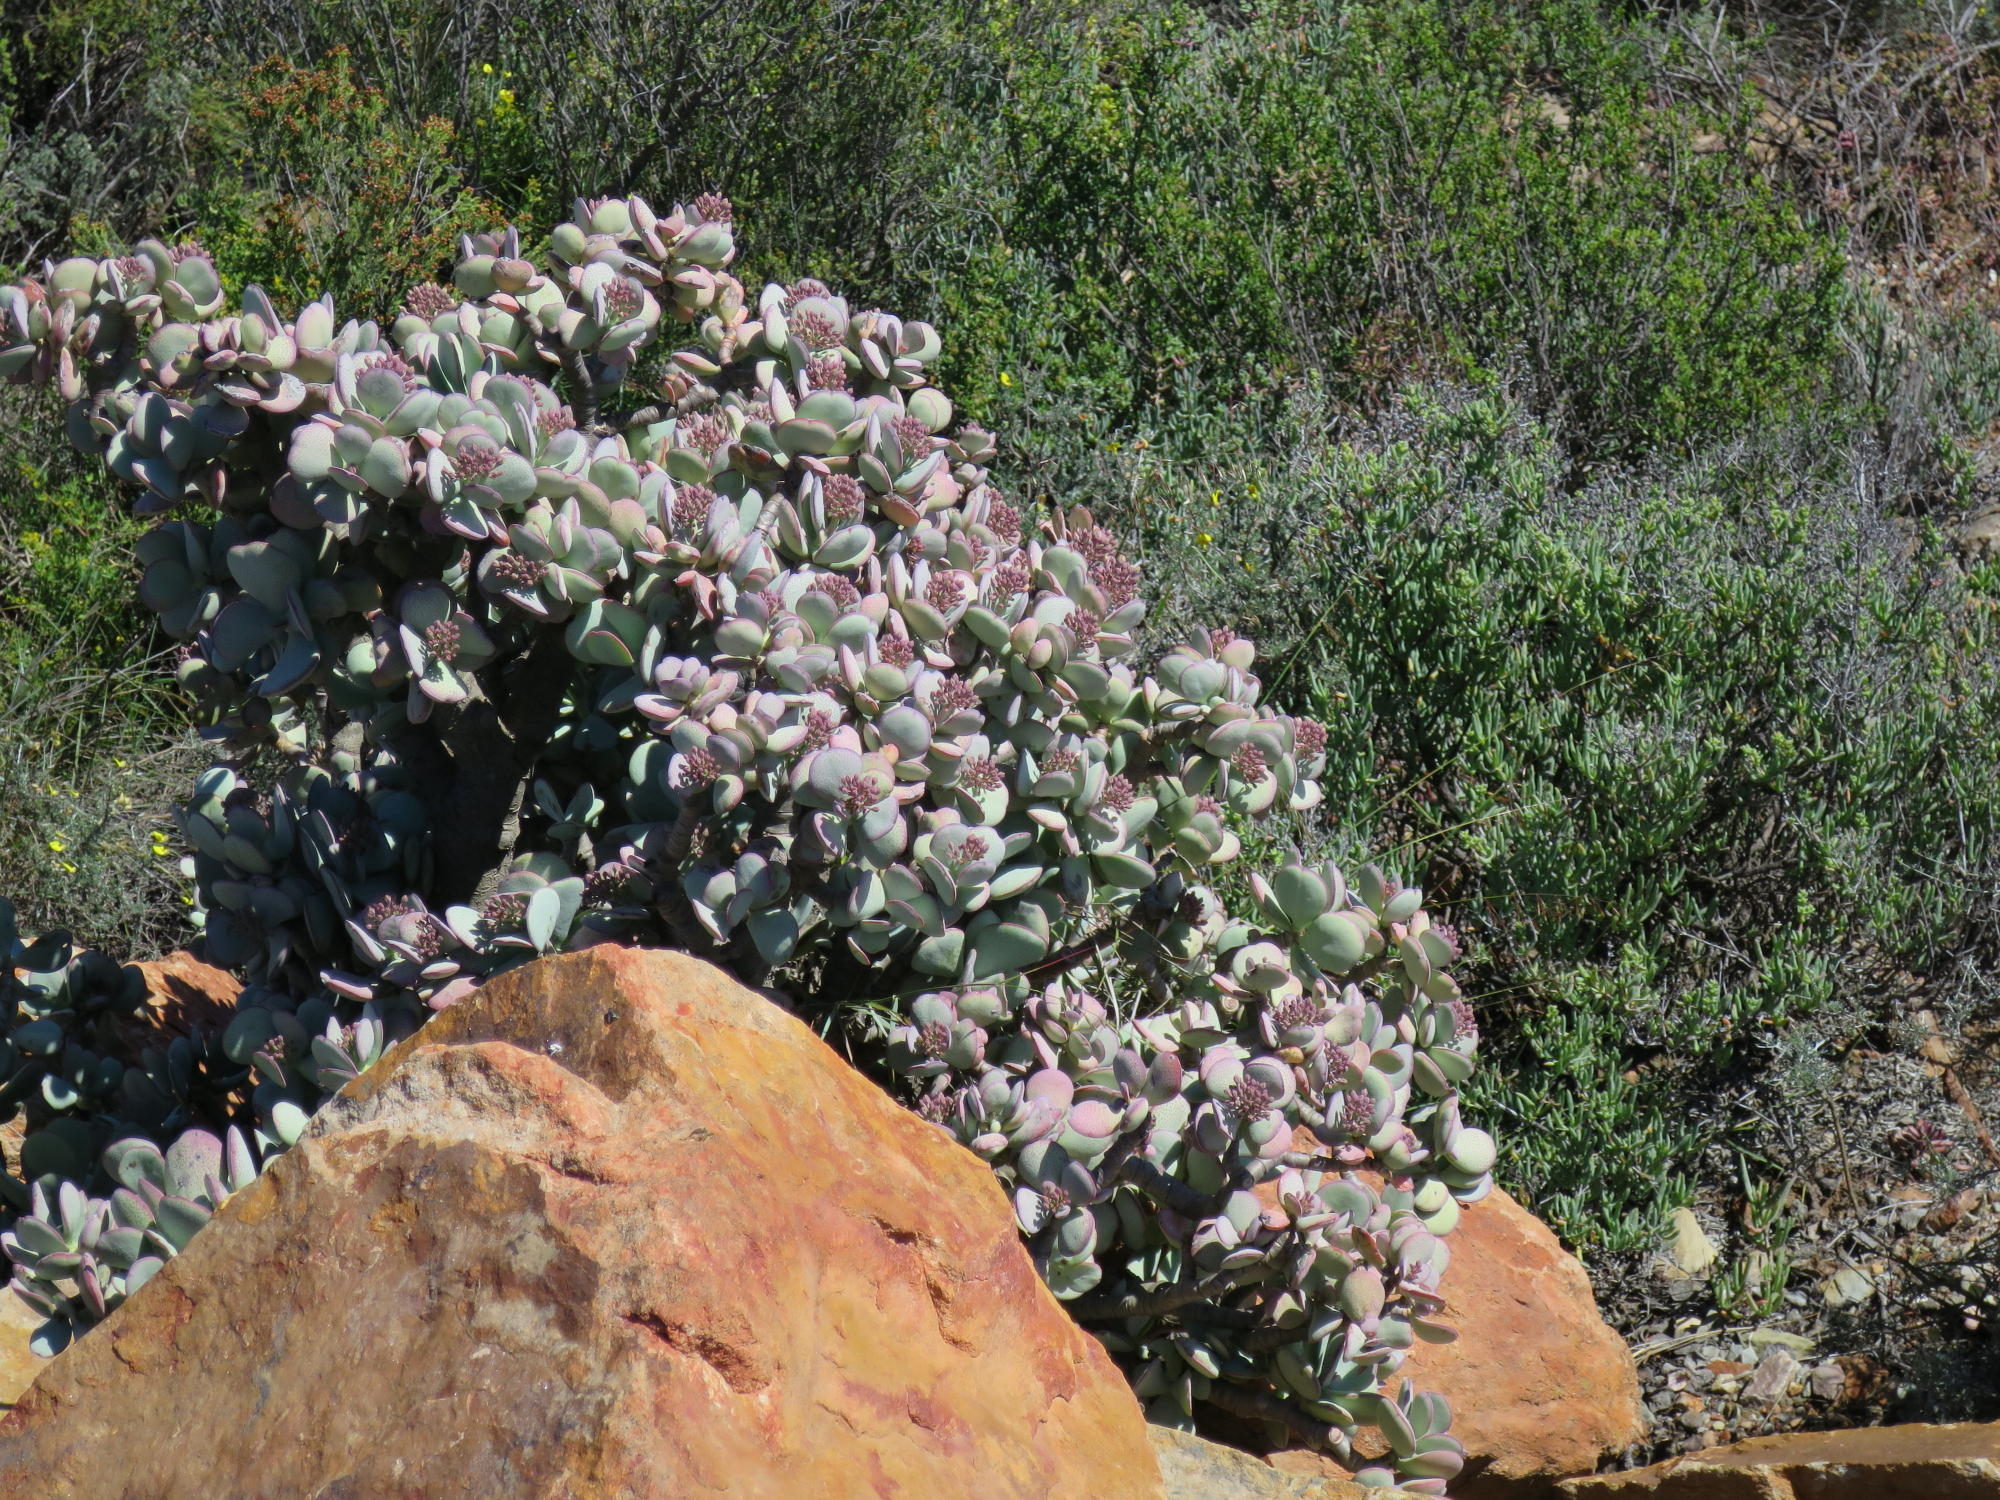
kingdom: Plantae
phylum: Tracheophyta
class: Magnoliopsida
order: Saxifragales
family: Crassulaceae
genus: Crassula
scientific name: Crassula arborescens
